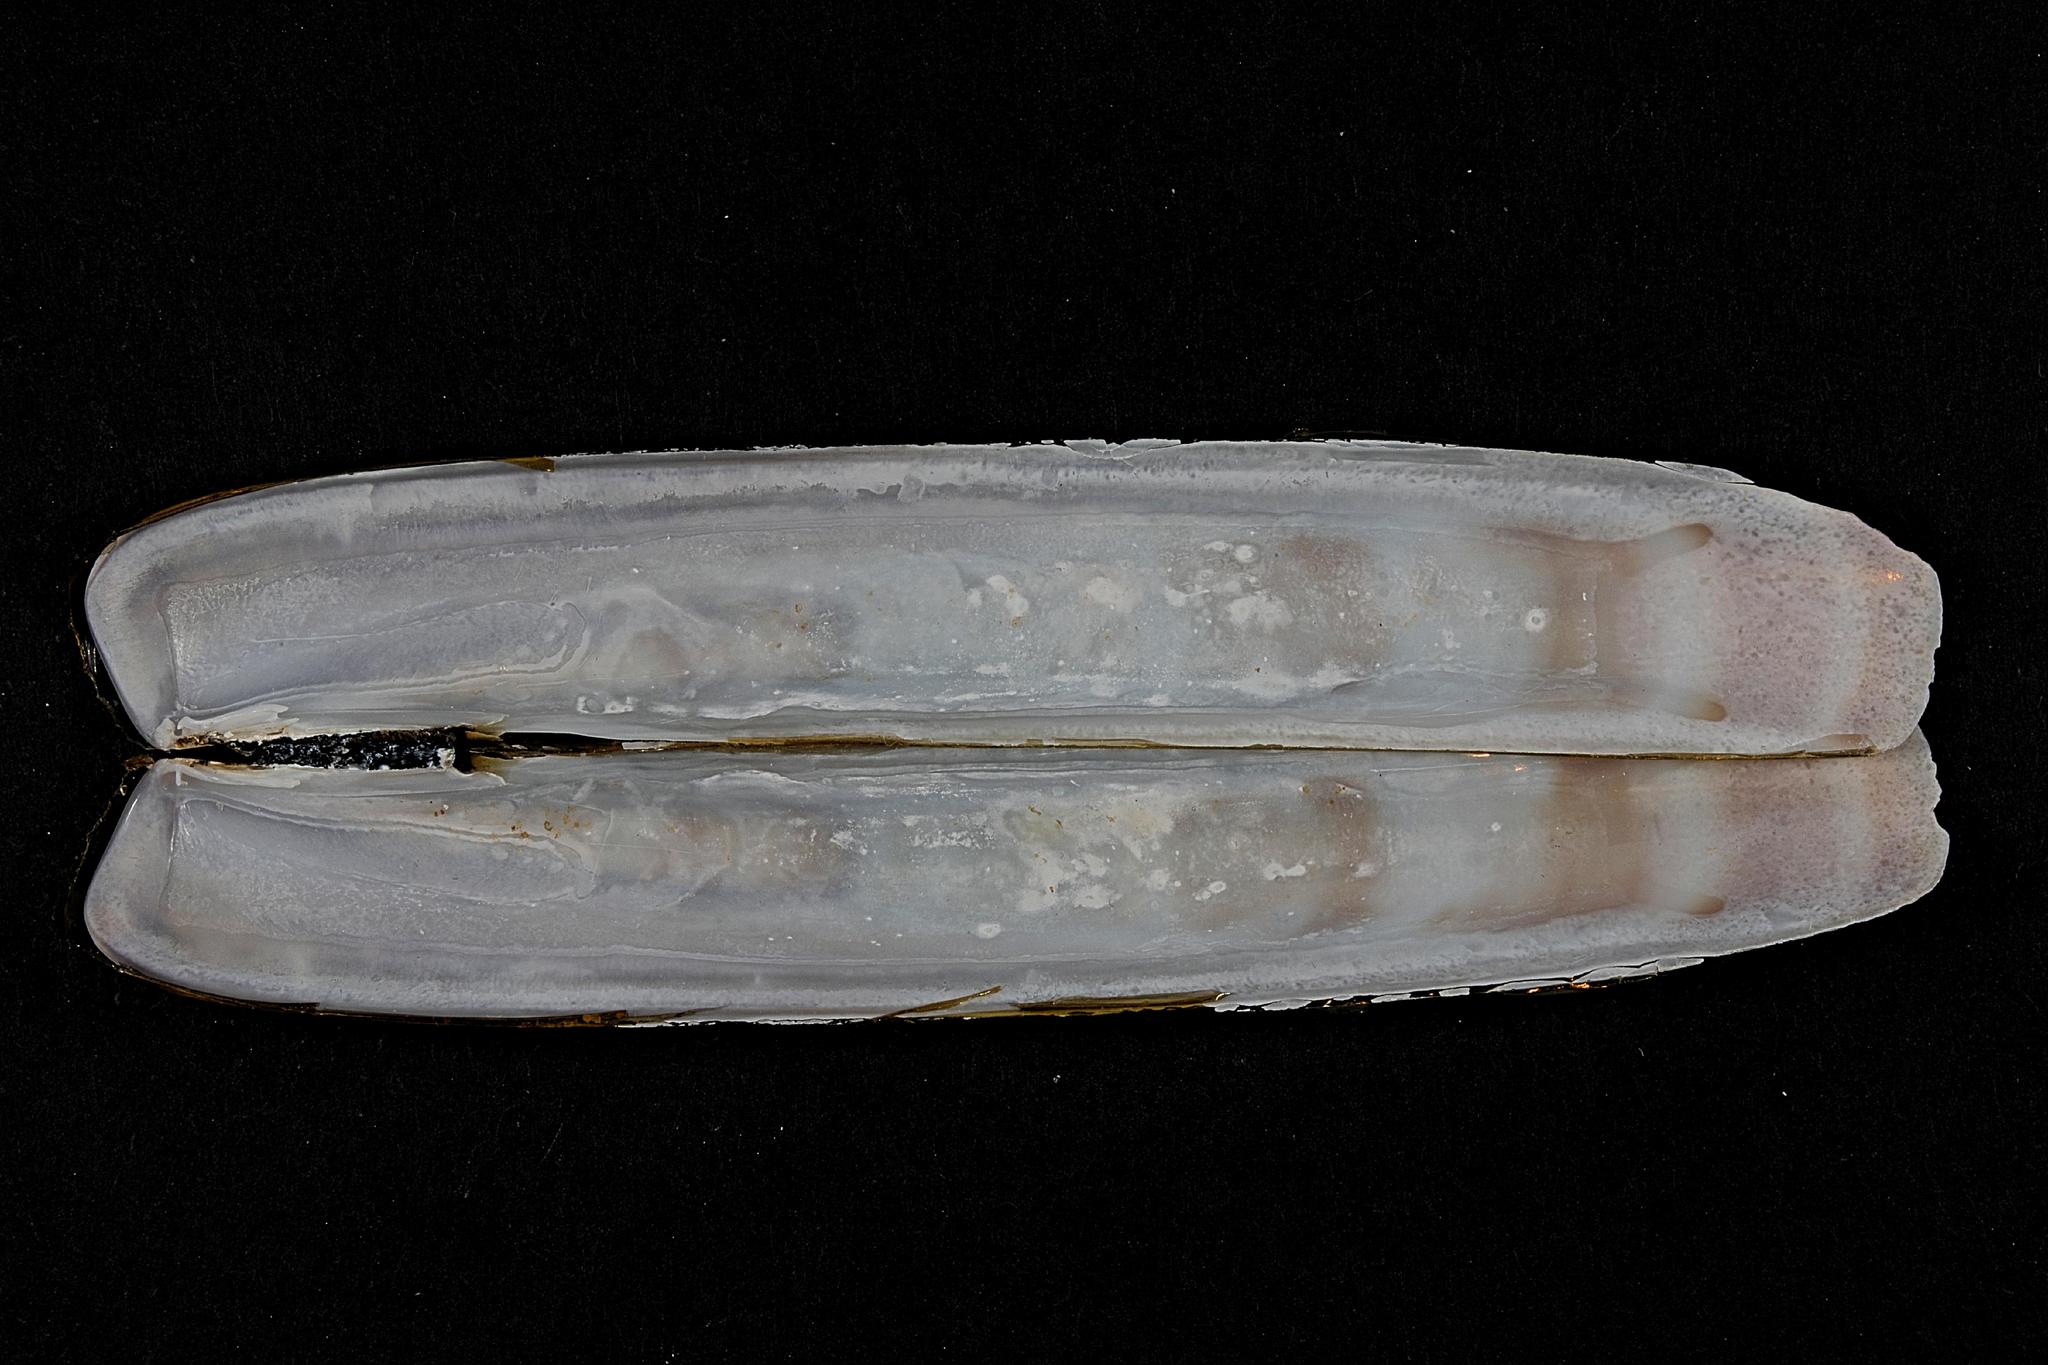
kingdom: Animalia
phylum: Mollusca
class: Bivalvia
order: Adapedonta
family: Pharidae
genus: Ensis
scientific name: Ensis magnus
